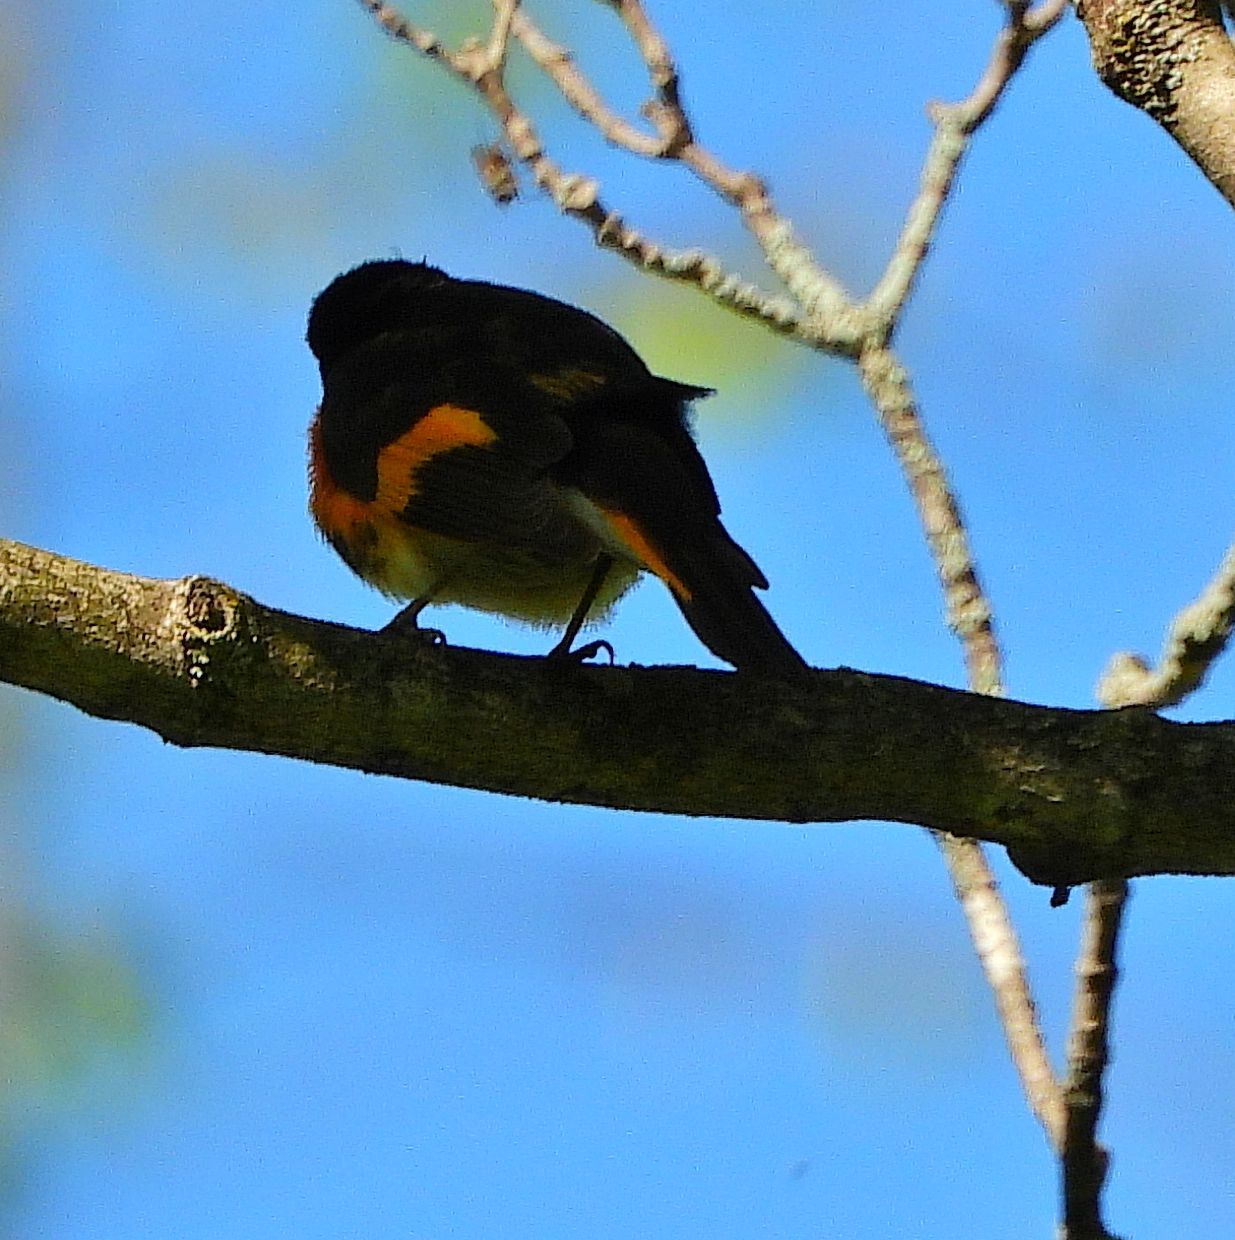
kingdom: Animalia
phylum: Chordata
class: Aves
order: Passeriformes
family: Parulidae
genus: Setophaga
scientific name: Setophaga ruticilla
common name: American redstart
